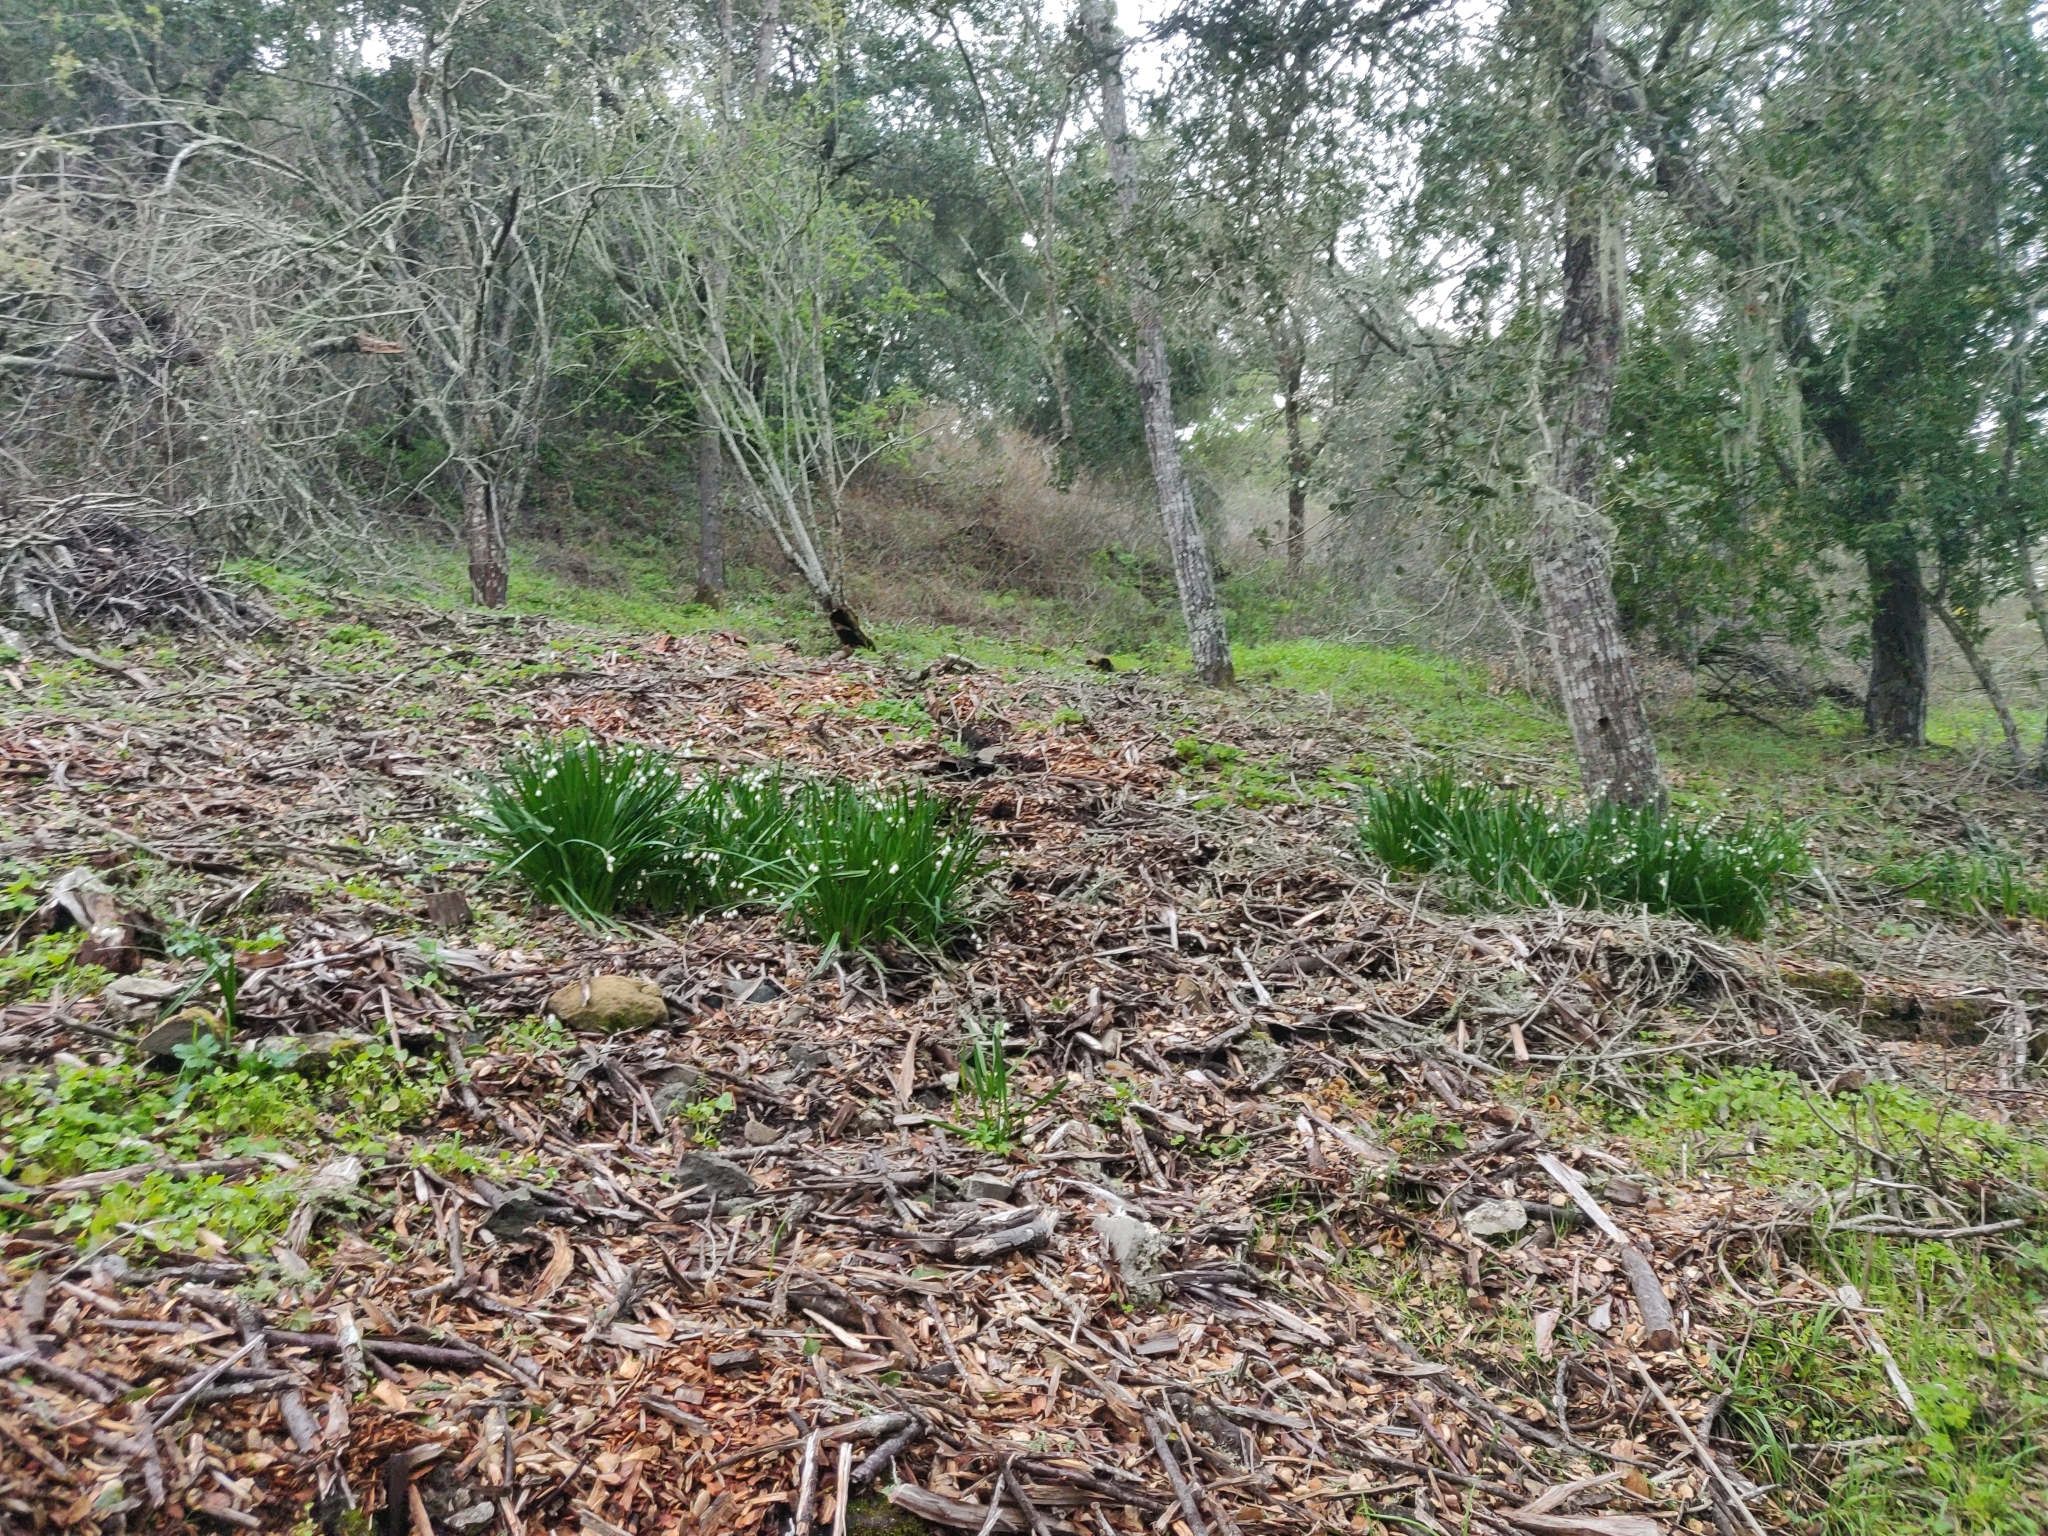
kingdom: Plantae
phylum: Tracheophyta
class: Liliopsida
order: Asparagales
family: Amaryllidaceae
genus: Leucojum
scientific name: Leucojum aestivum
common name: Summer snowflake
